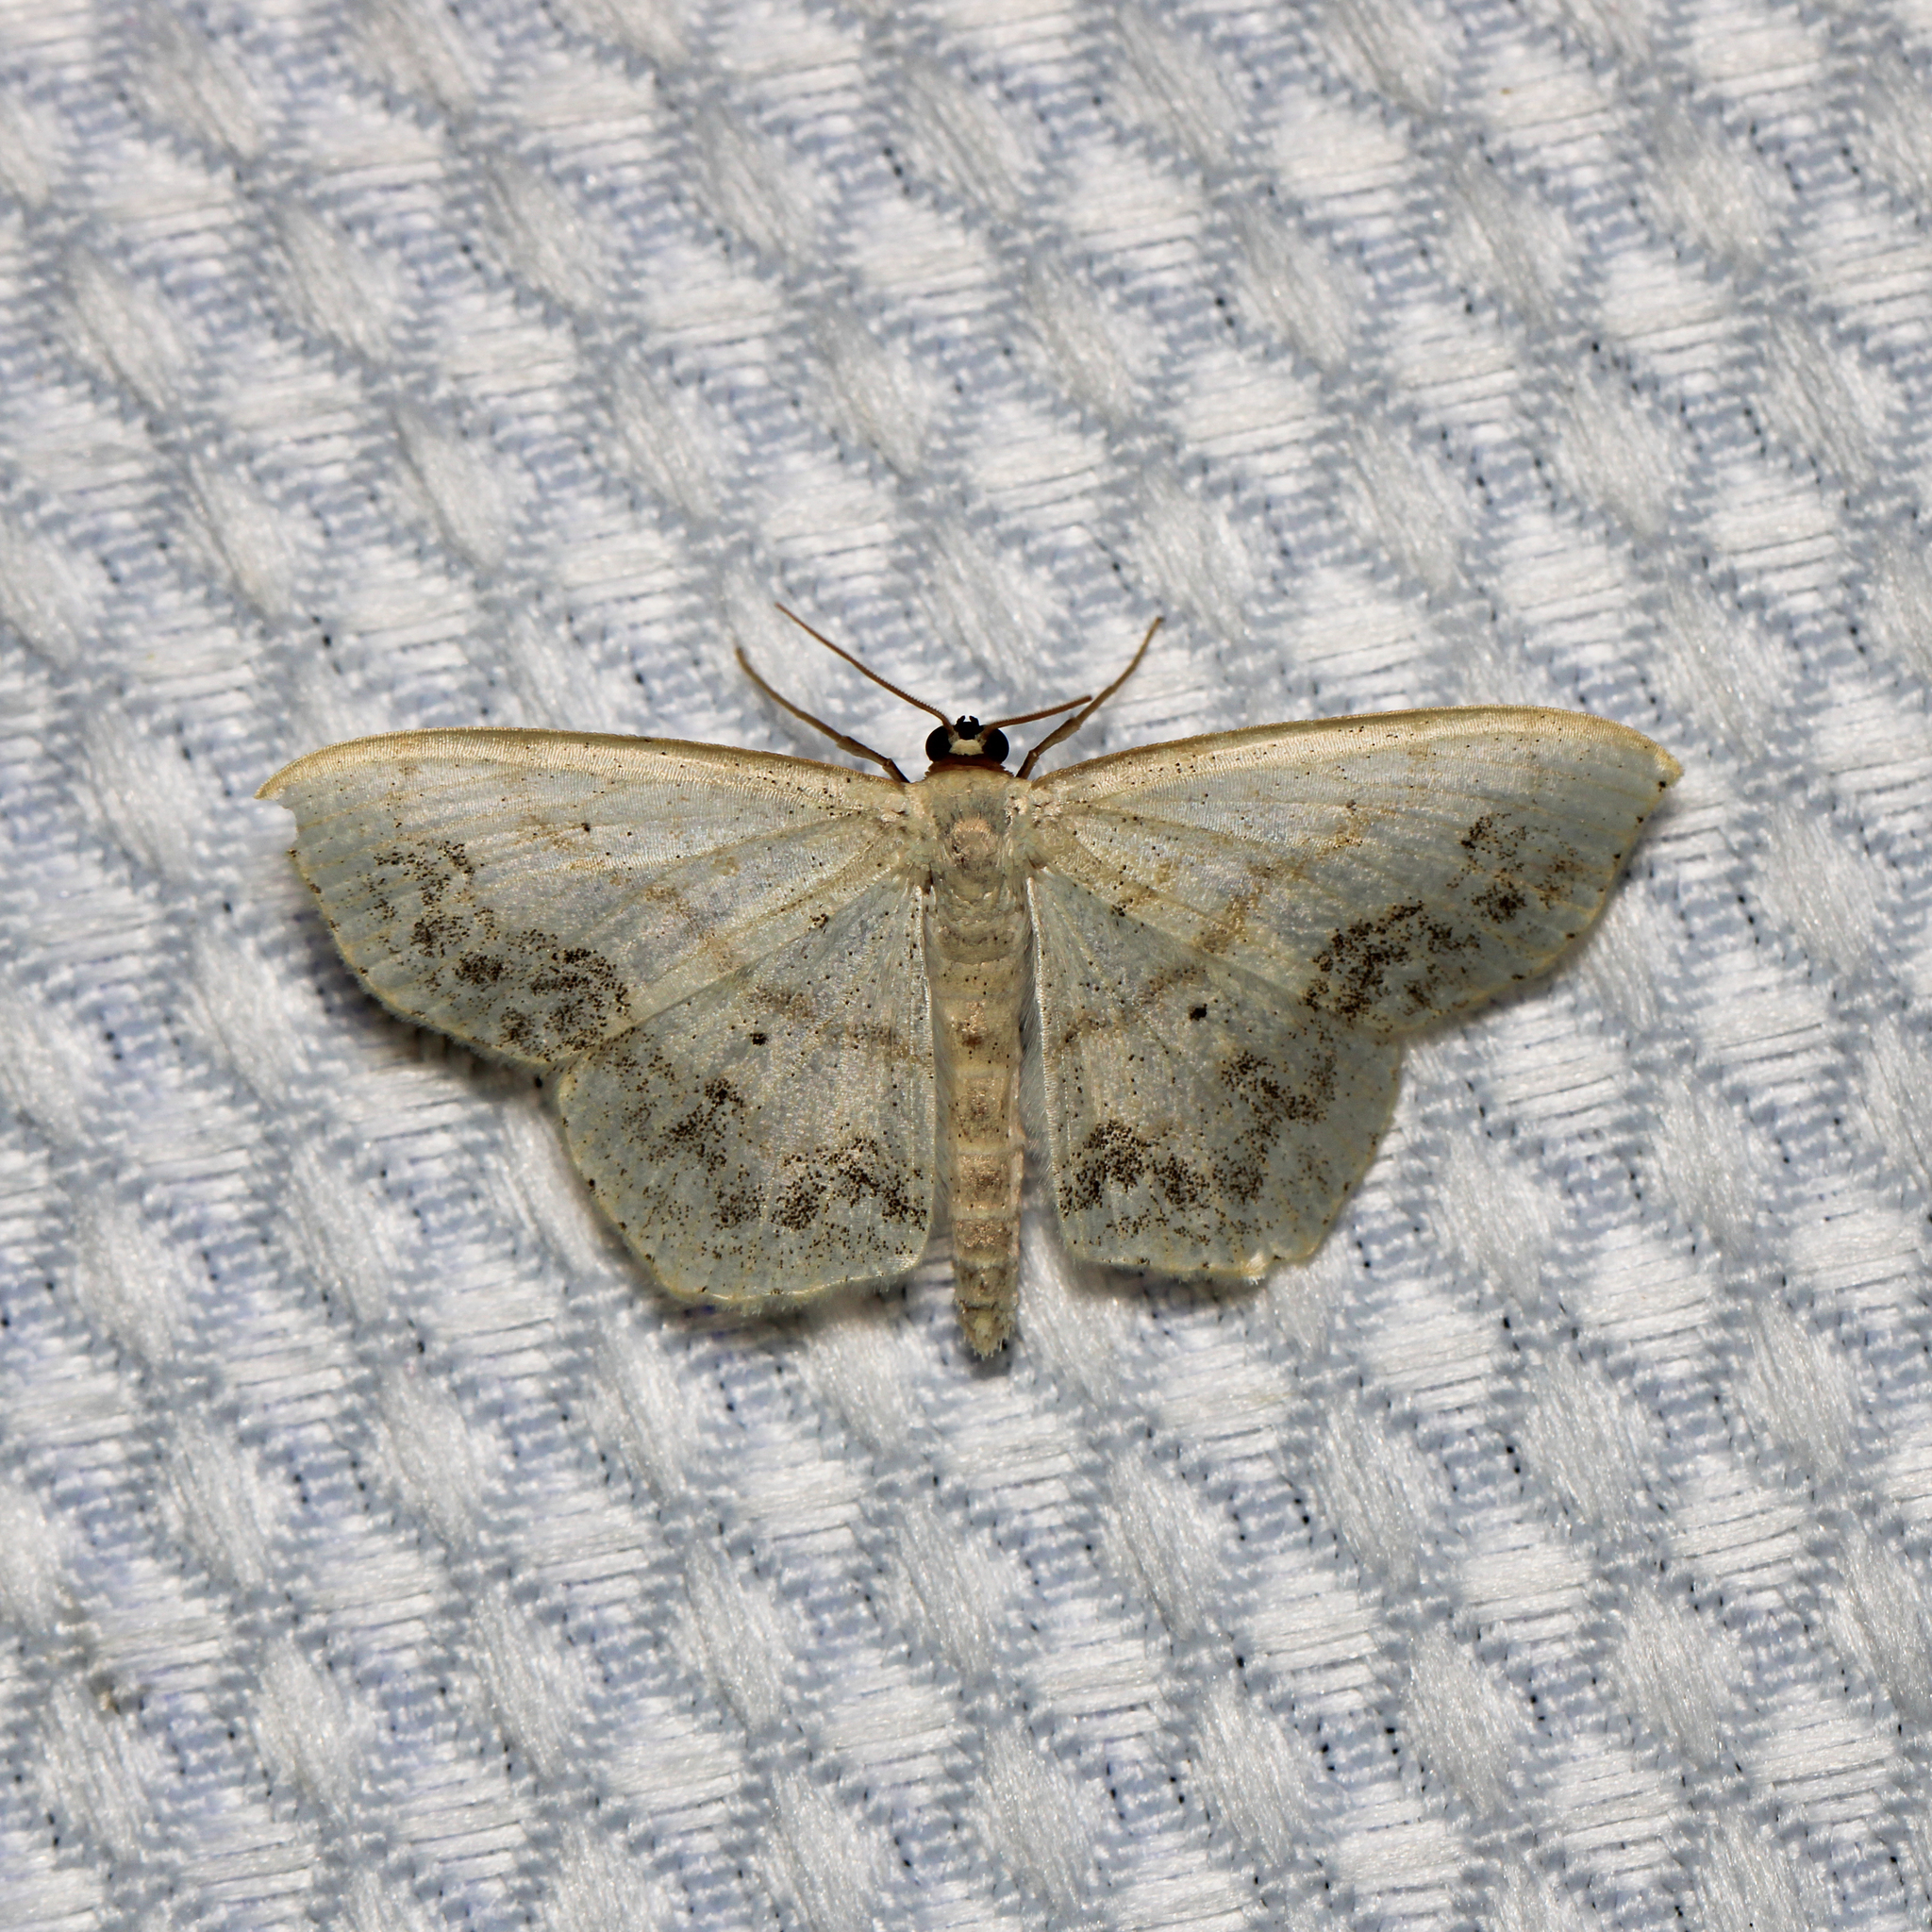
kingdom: Animalia
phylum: Arthropoda
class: Insecta
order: Lepidoptera
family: Geometridae
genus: Scopula
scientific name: Scopula limboundata
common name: Large lace border
